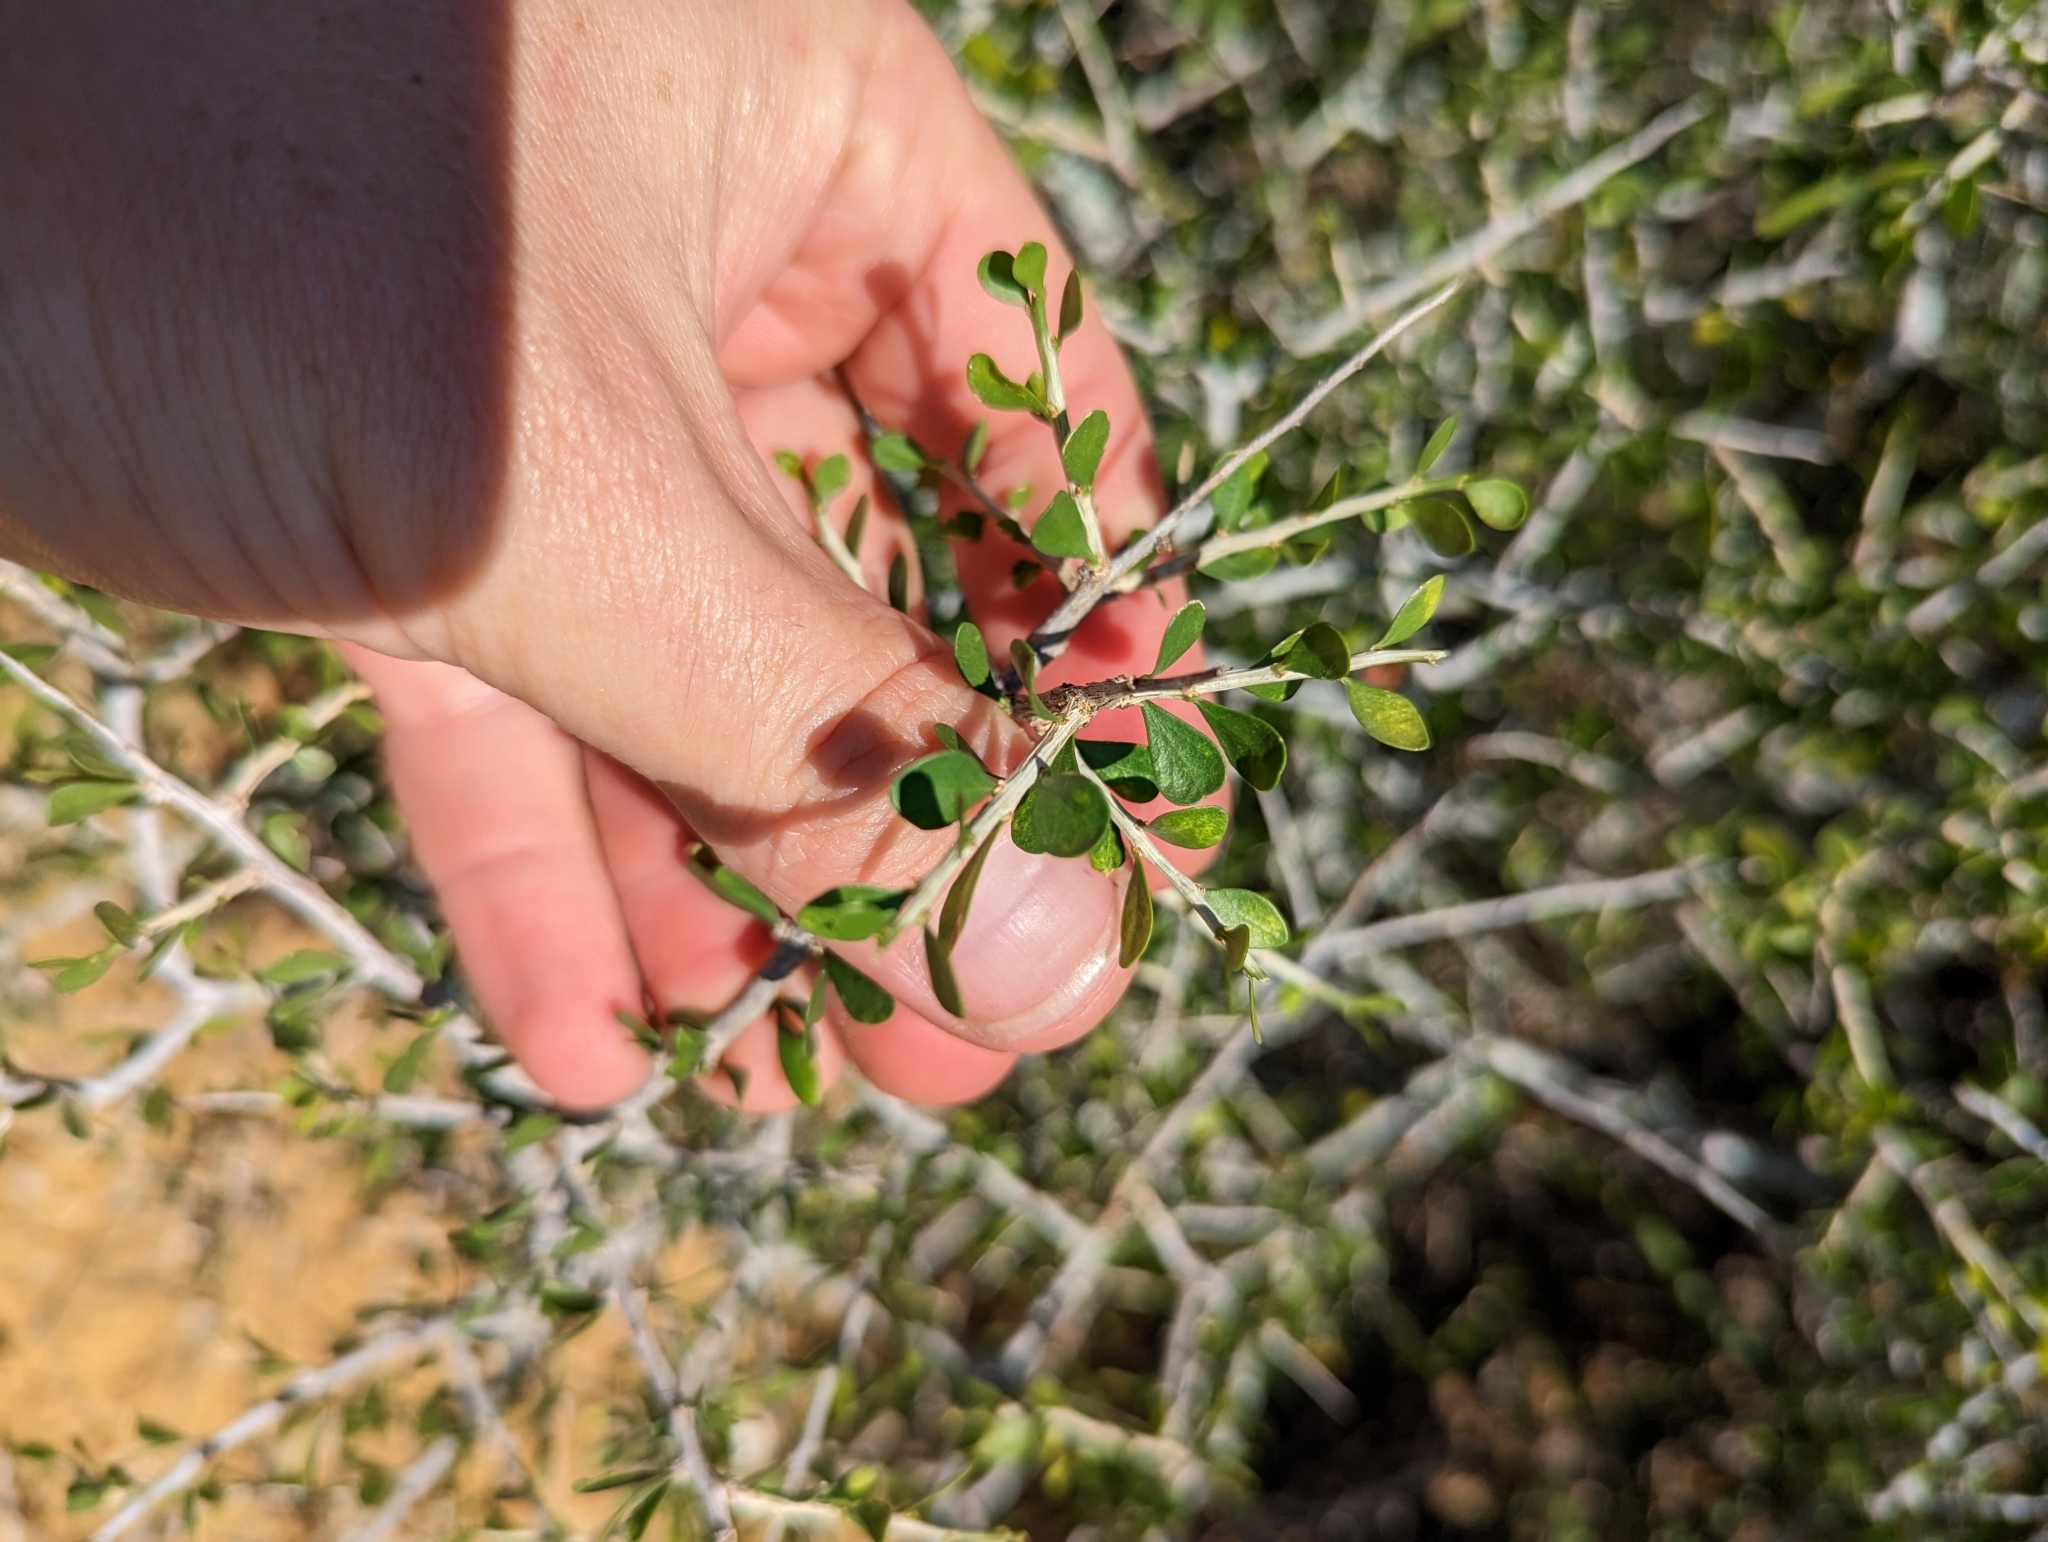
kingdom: Plantae
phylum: Tracheophyta
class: Magnoliopsida
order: Celastrales
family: Celastraceae
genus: Schaefferia
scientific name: Schaefferia cuneifolia
